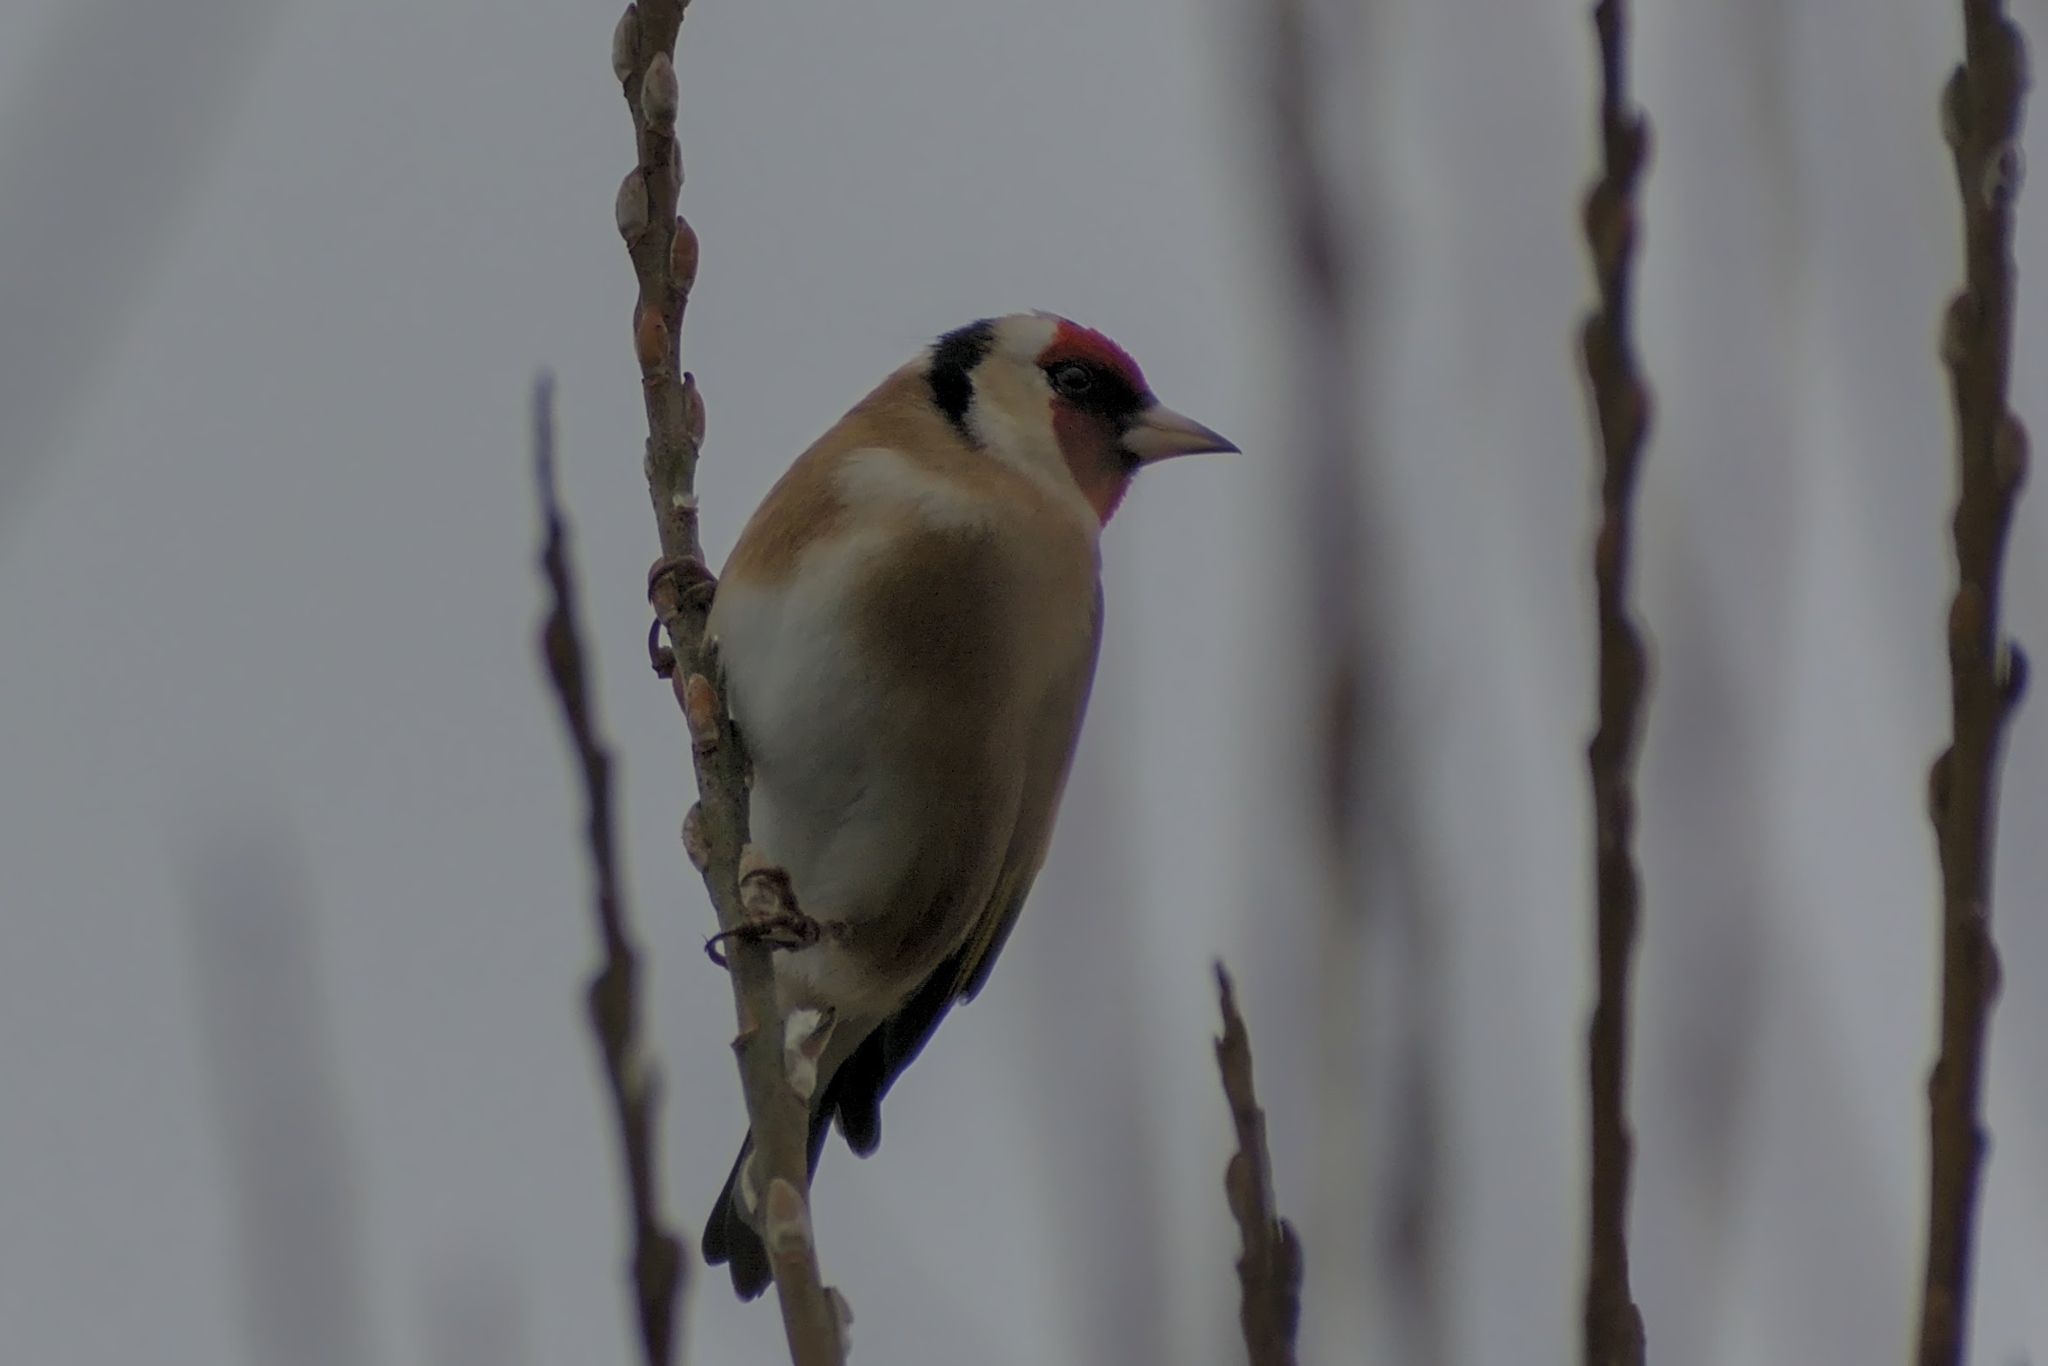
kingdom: Animalia
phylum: Chordata
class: Aves
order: Passeriformes
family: Fringillidae
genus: Carduelis
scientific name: Carduelis carduelis
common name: European goldfinch
